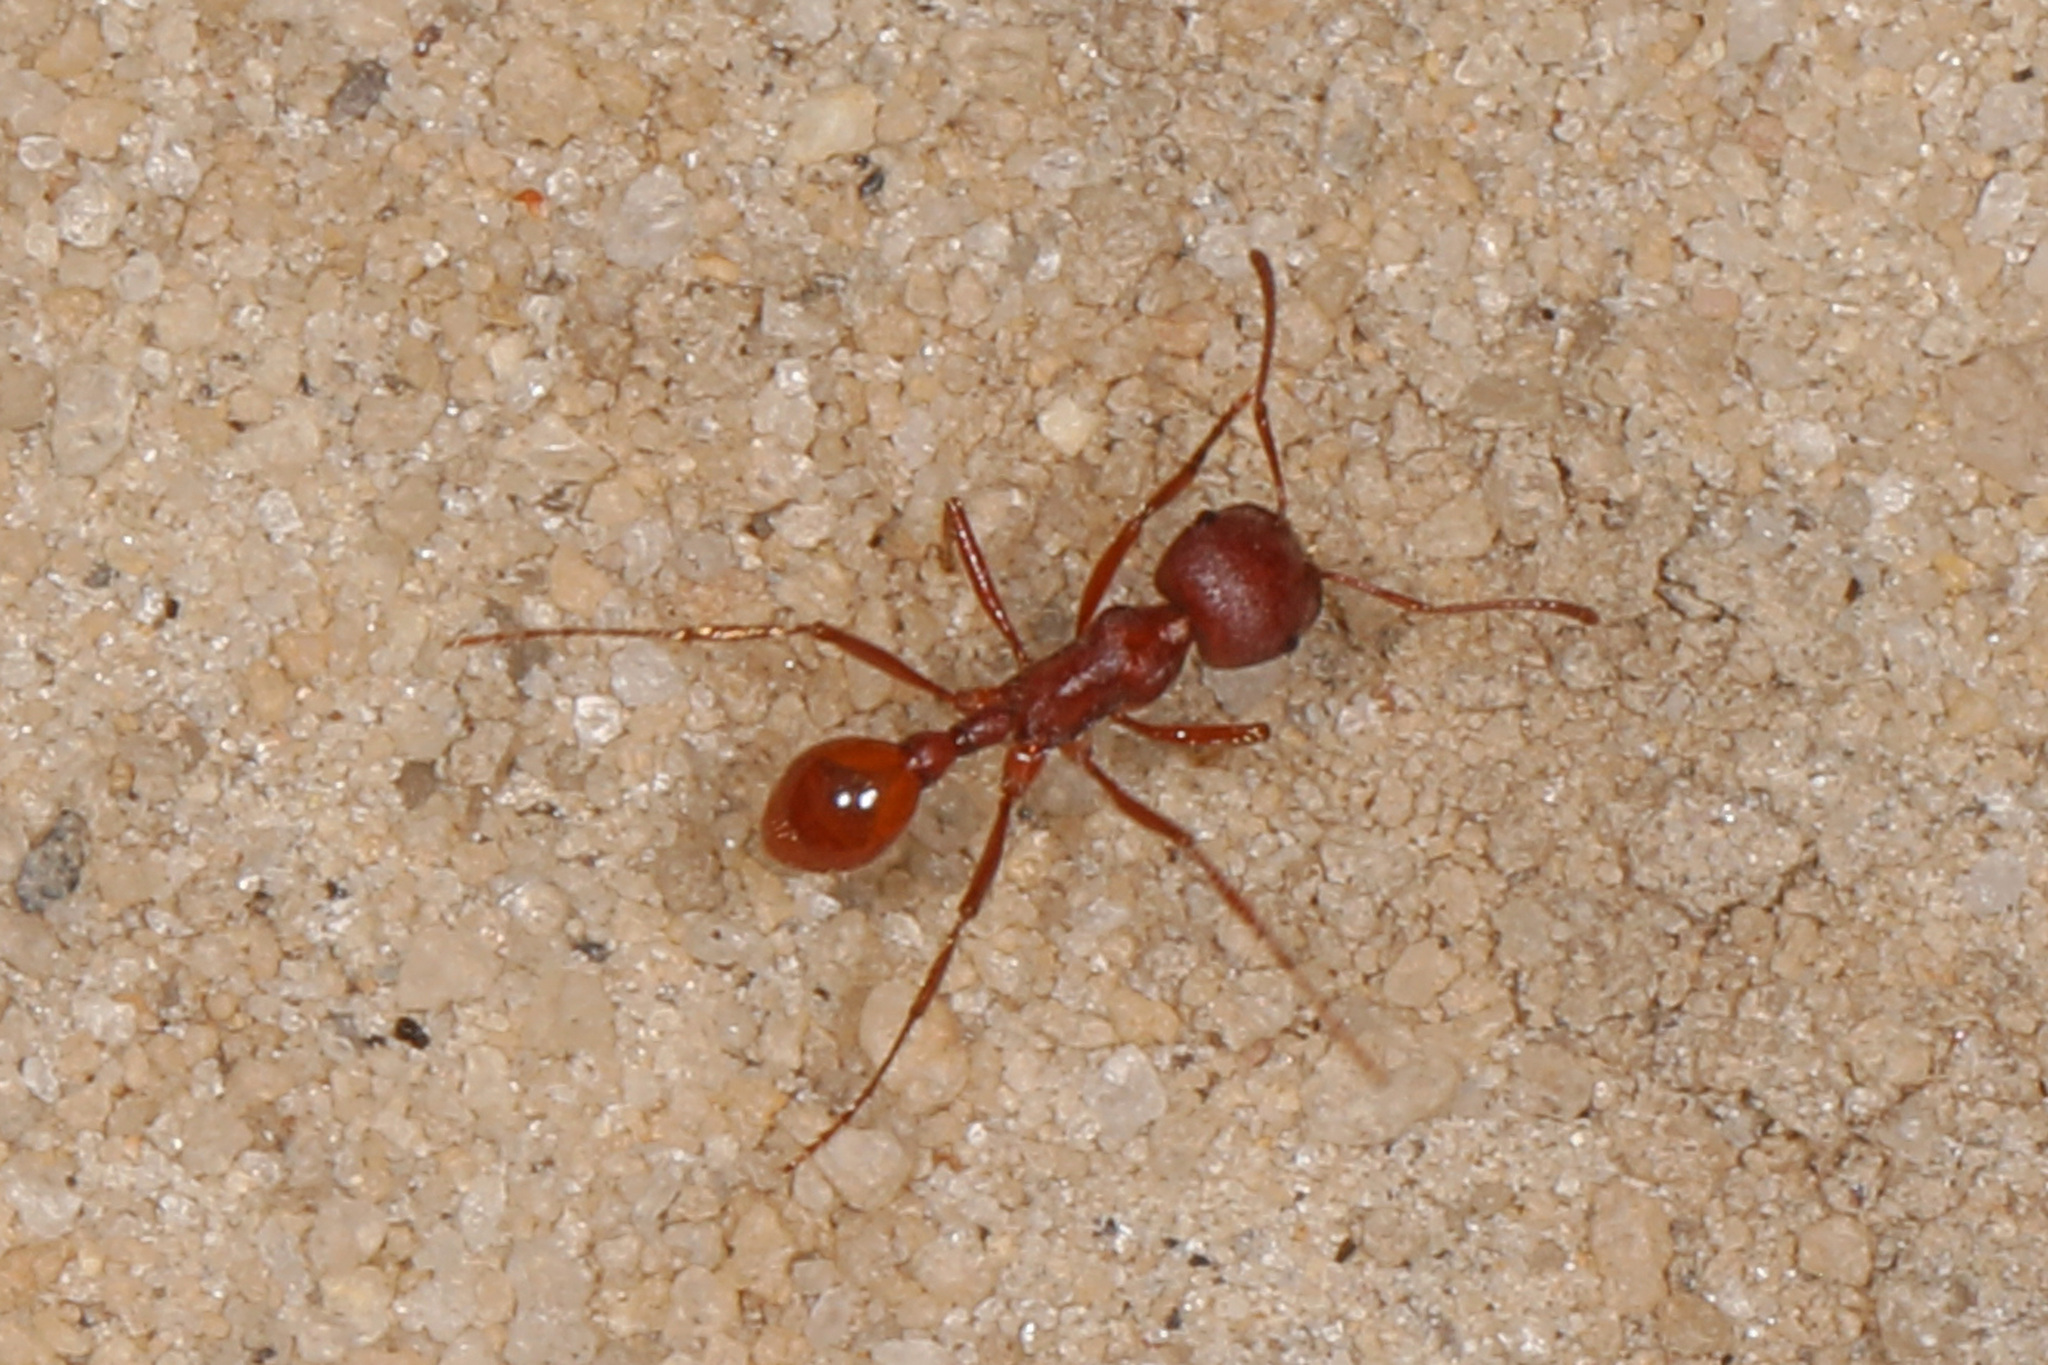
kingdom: Animalia
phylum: Arthropoda
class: Insecta
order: Hymenoptera
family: Formicidae
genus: Pogonomyrmex
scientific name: Pogonomyrmex badius
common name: Florida harvester ant
